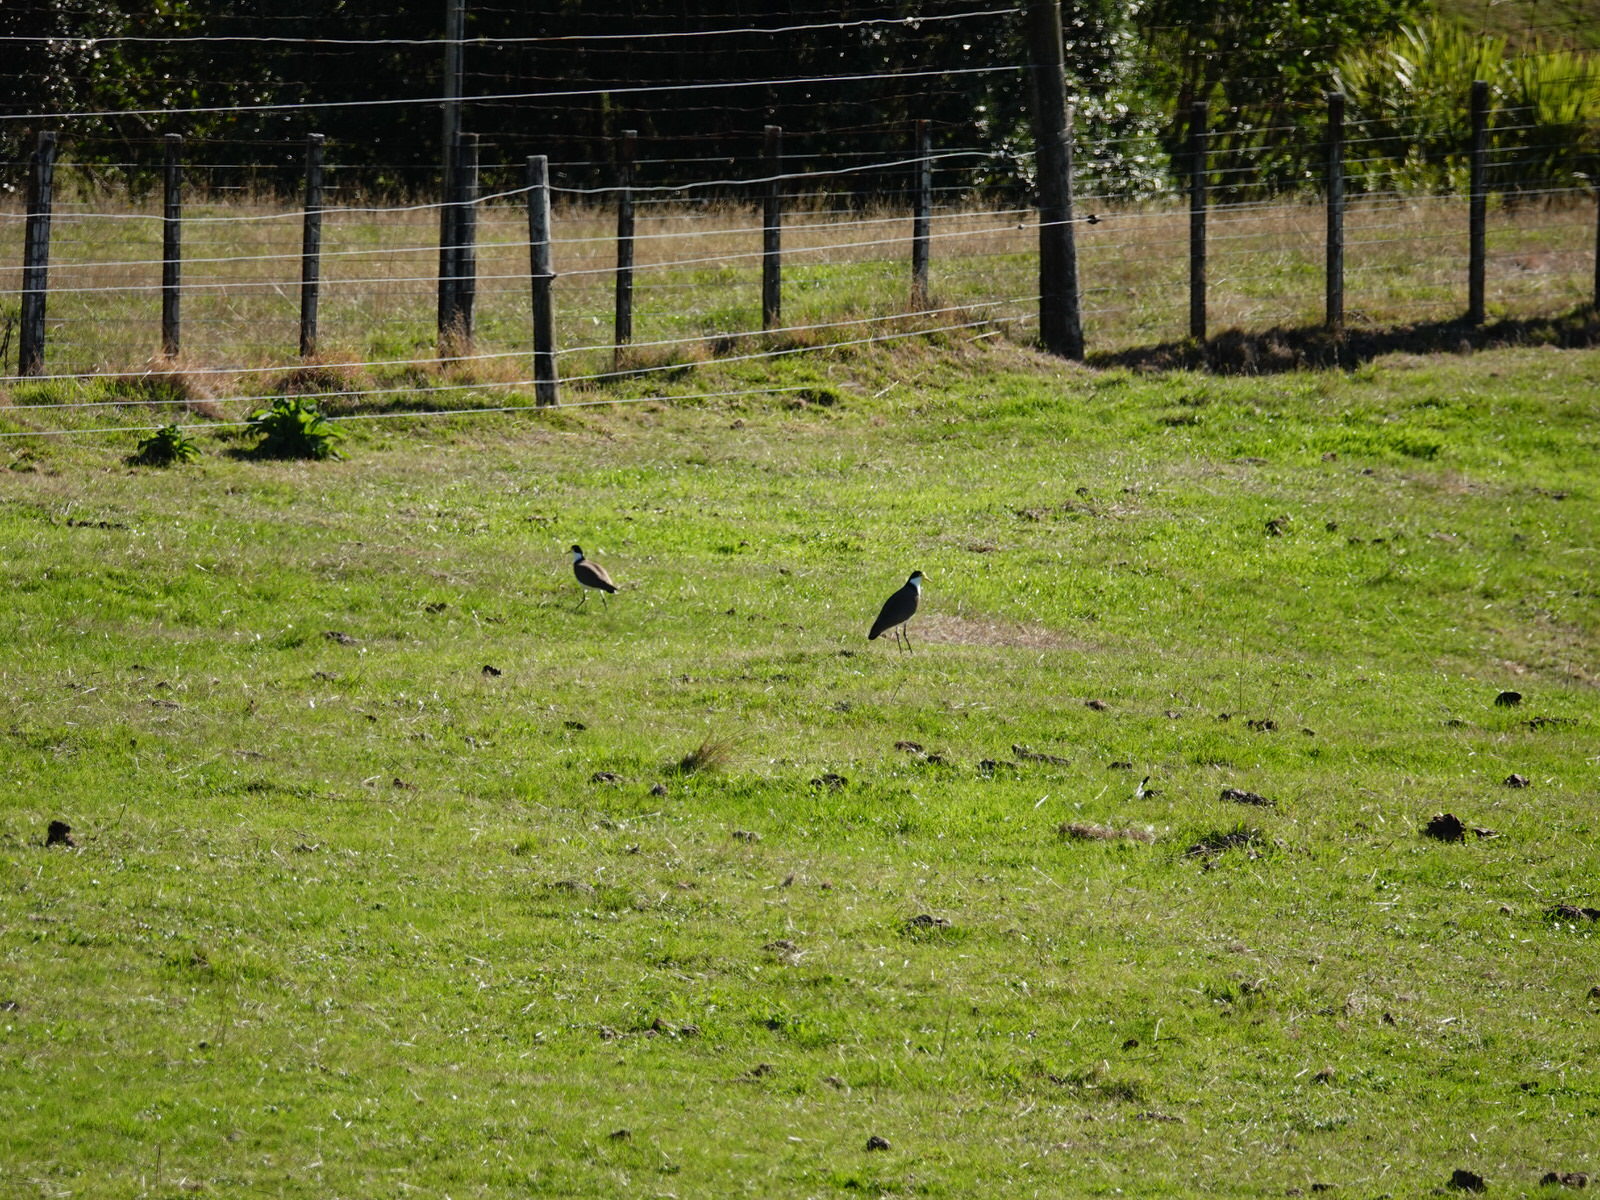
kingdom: Animalia
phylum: Chordata
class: Aves
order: Charadriiformes
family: Charadriidae
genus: Vanellus
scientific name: Vanellus miles
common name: Masked lapwing
